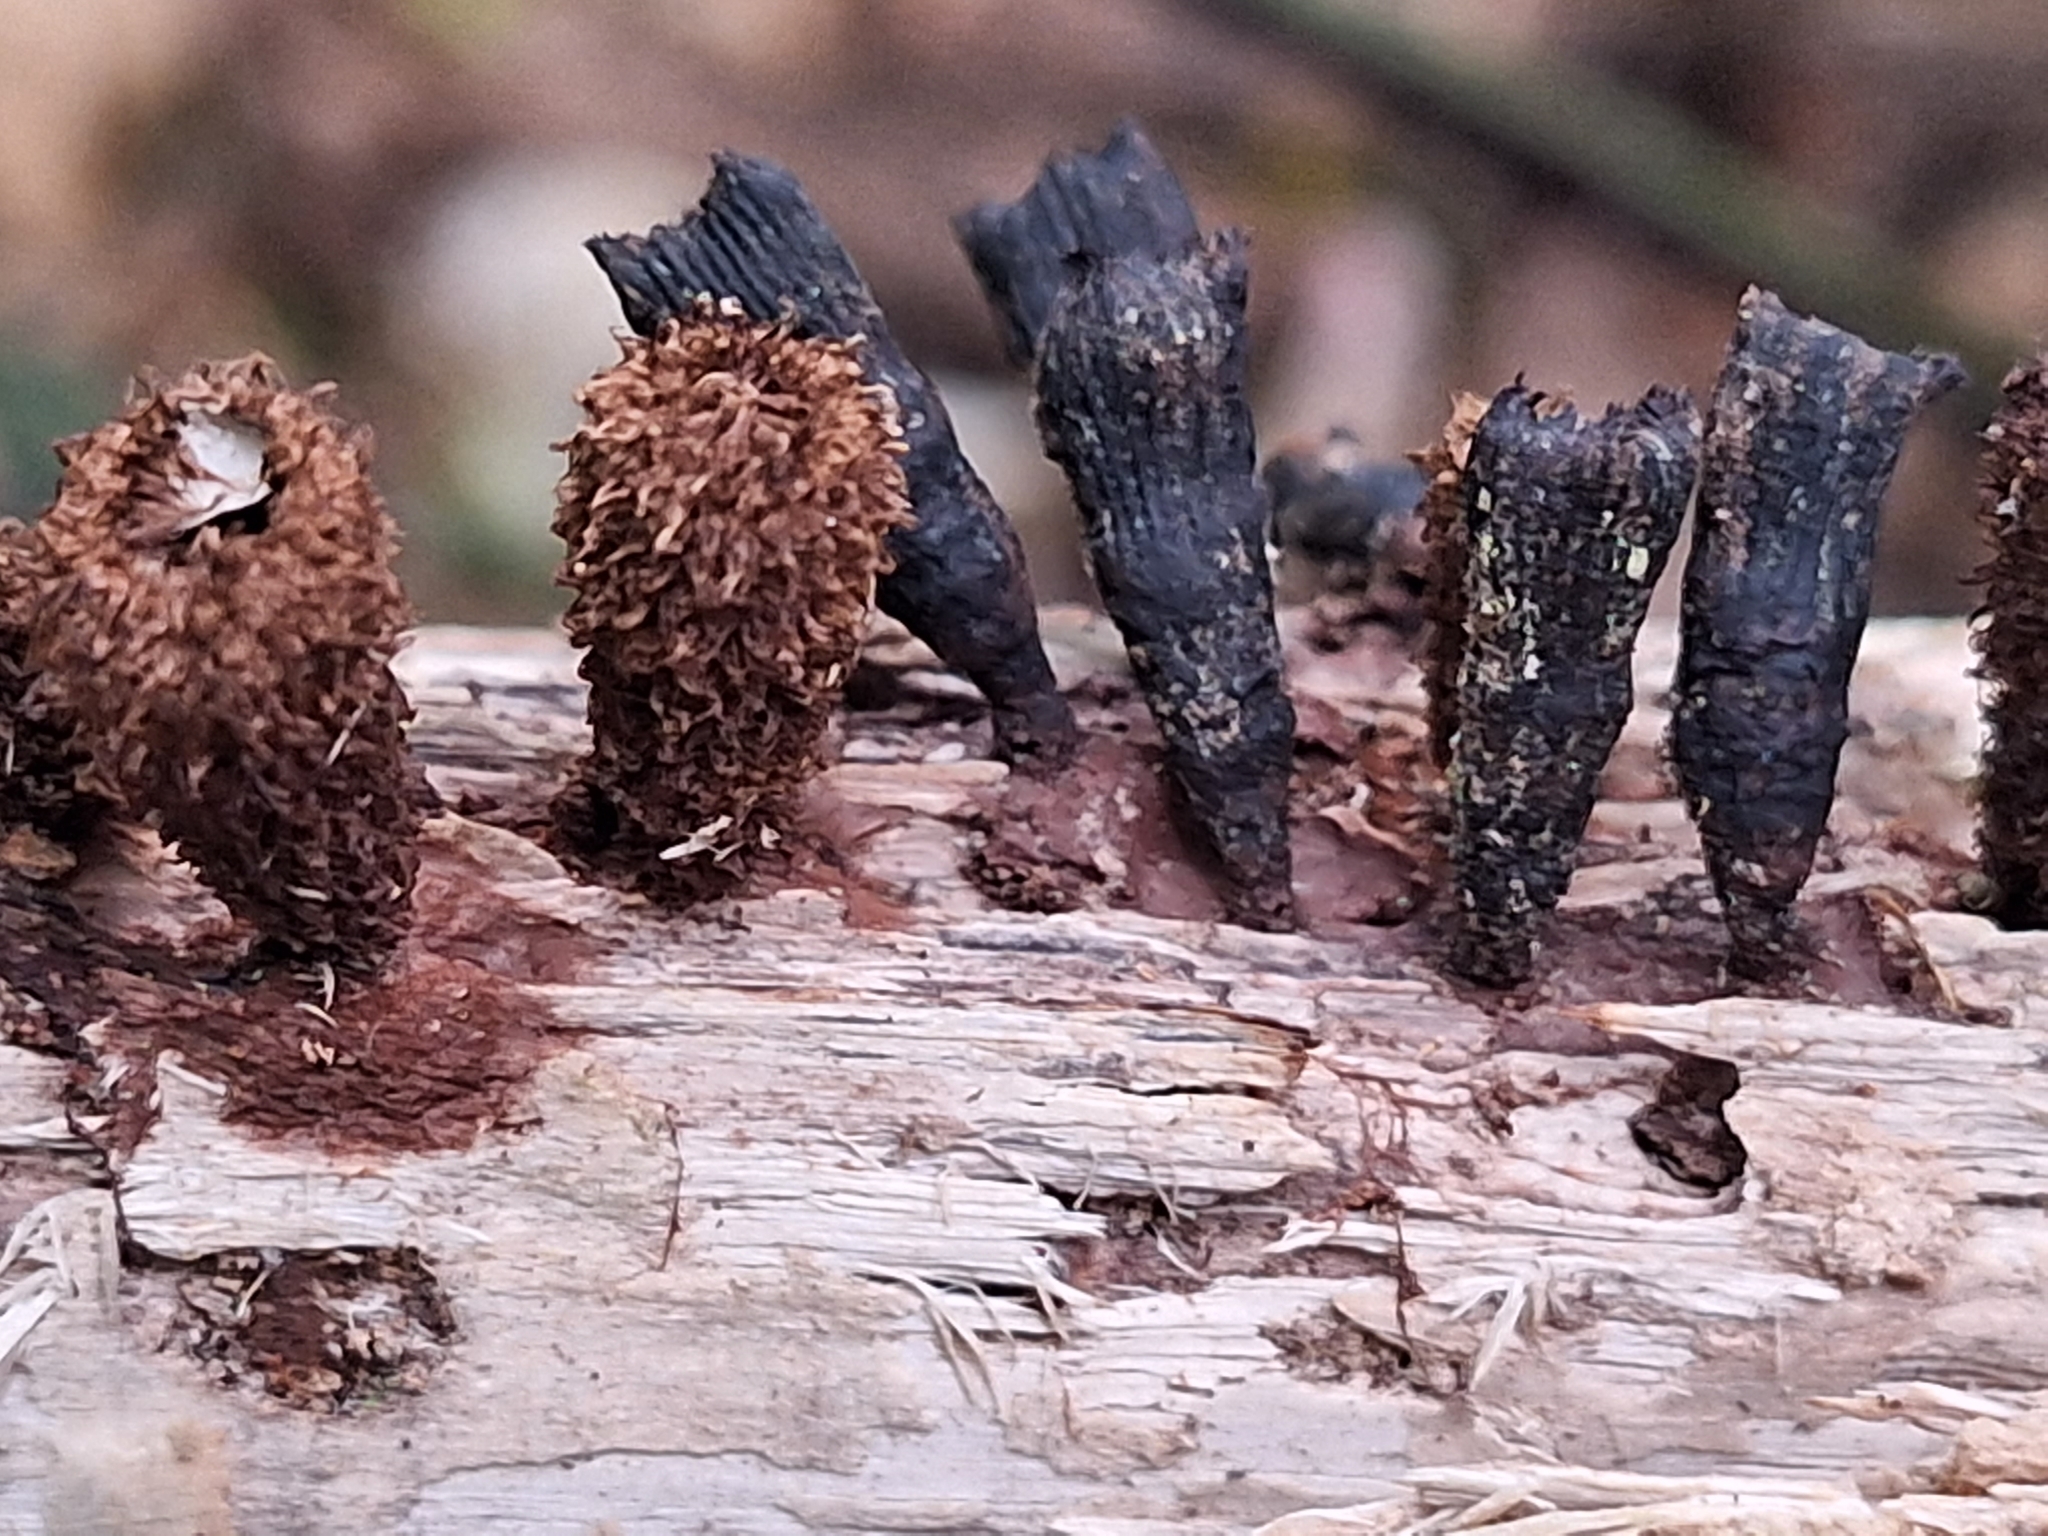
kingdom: Fungi
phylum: Basidiomycota
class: Agaricomycetes
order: Agaricales
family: Agaricaceae
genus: Cyathus
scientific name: Cyathus striatus
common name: Fluted bird's nest
